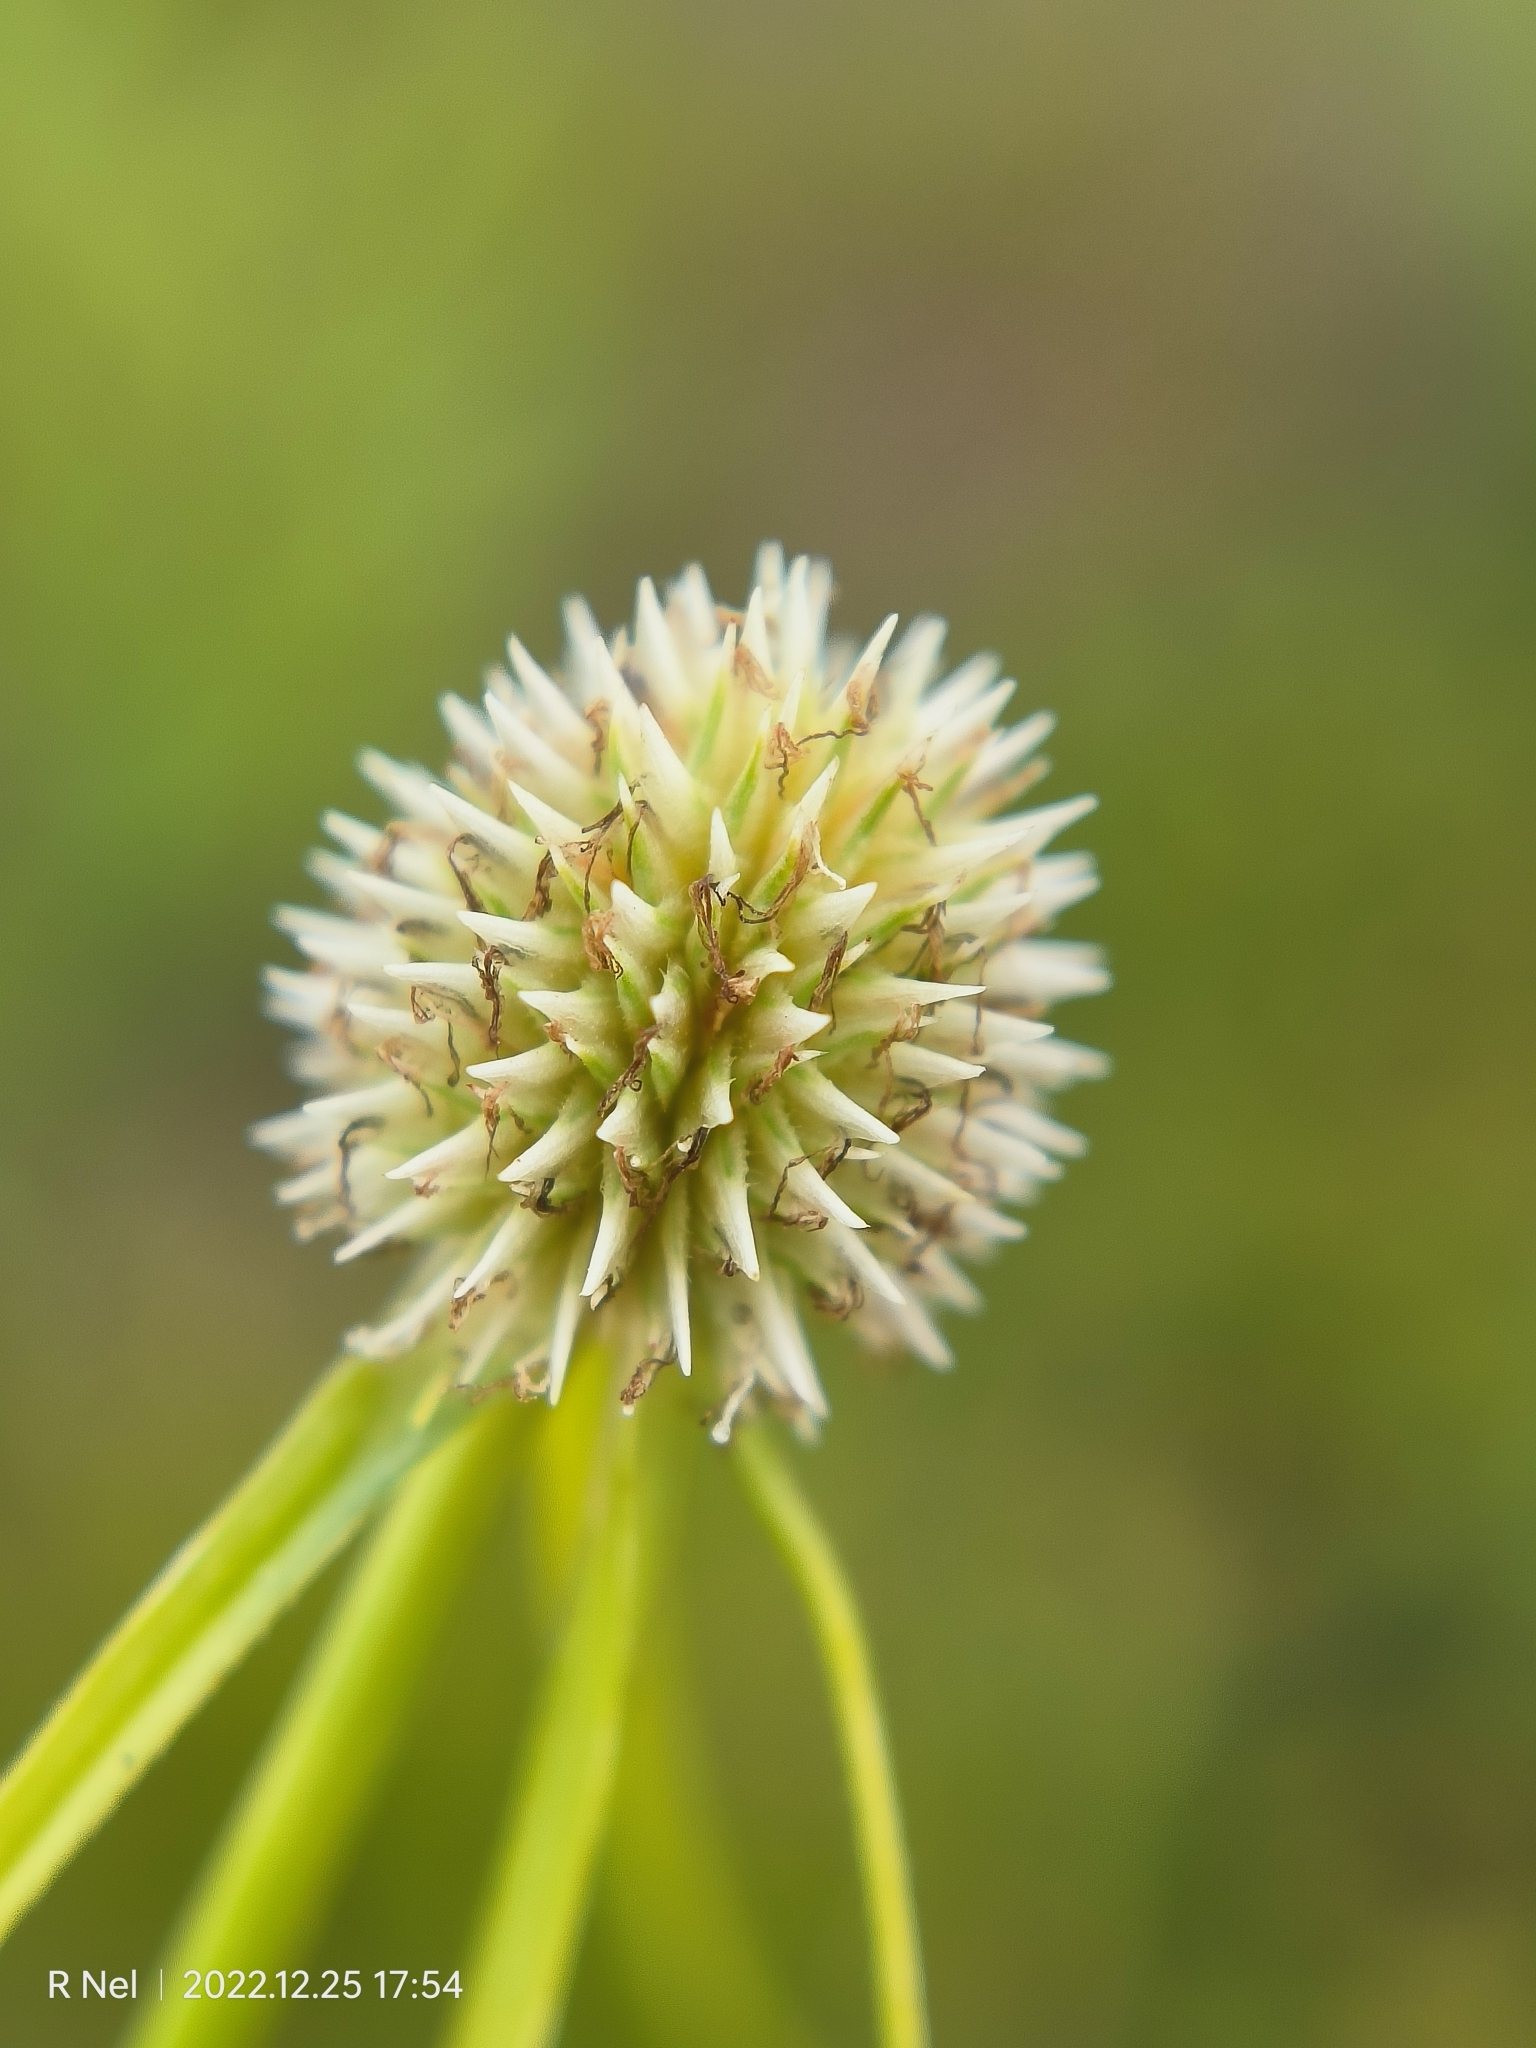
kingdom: Plantae
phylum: Tracheophyta
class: Liliopsida
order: Poales
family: Cyperaceae
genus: Cyperus
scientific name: Cyperus alatus
